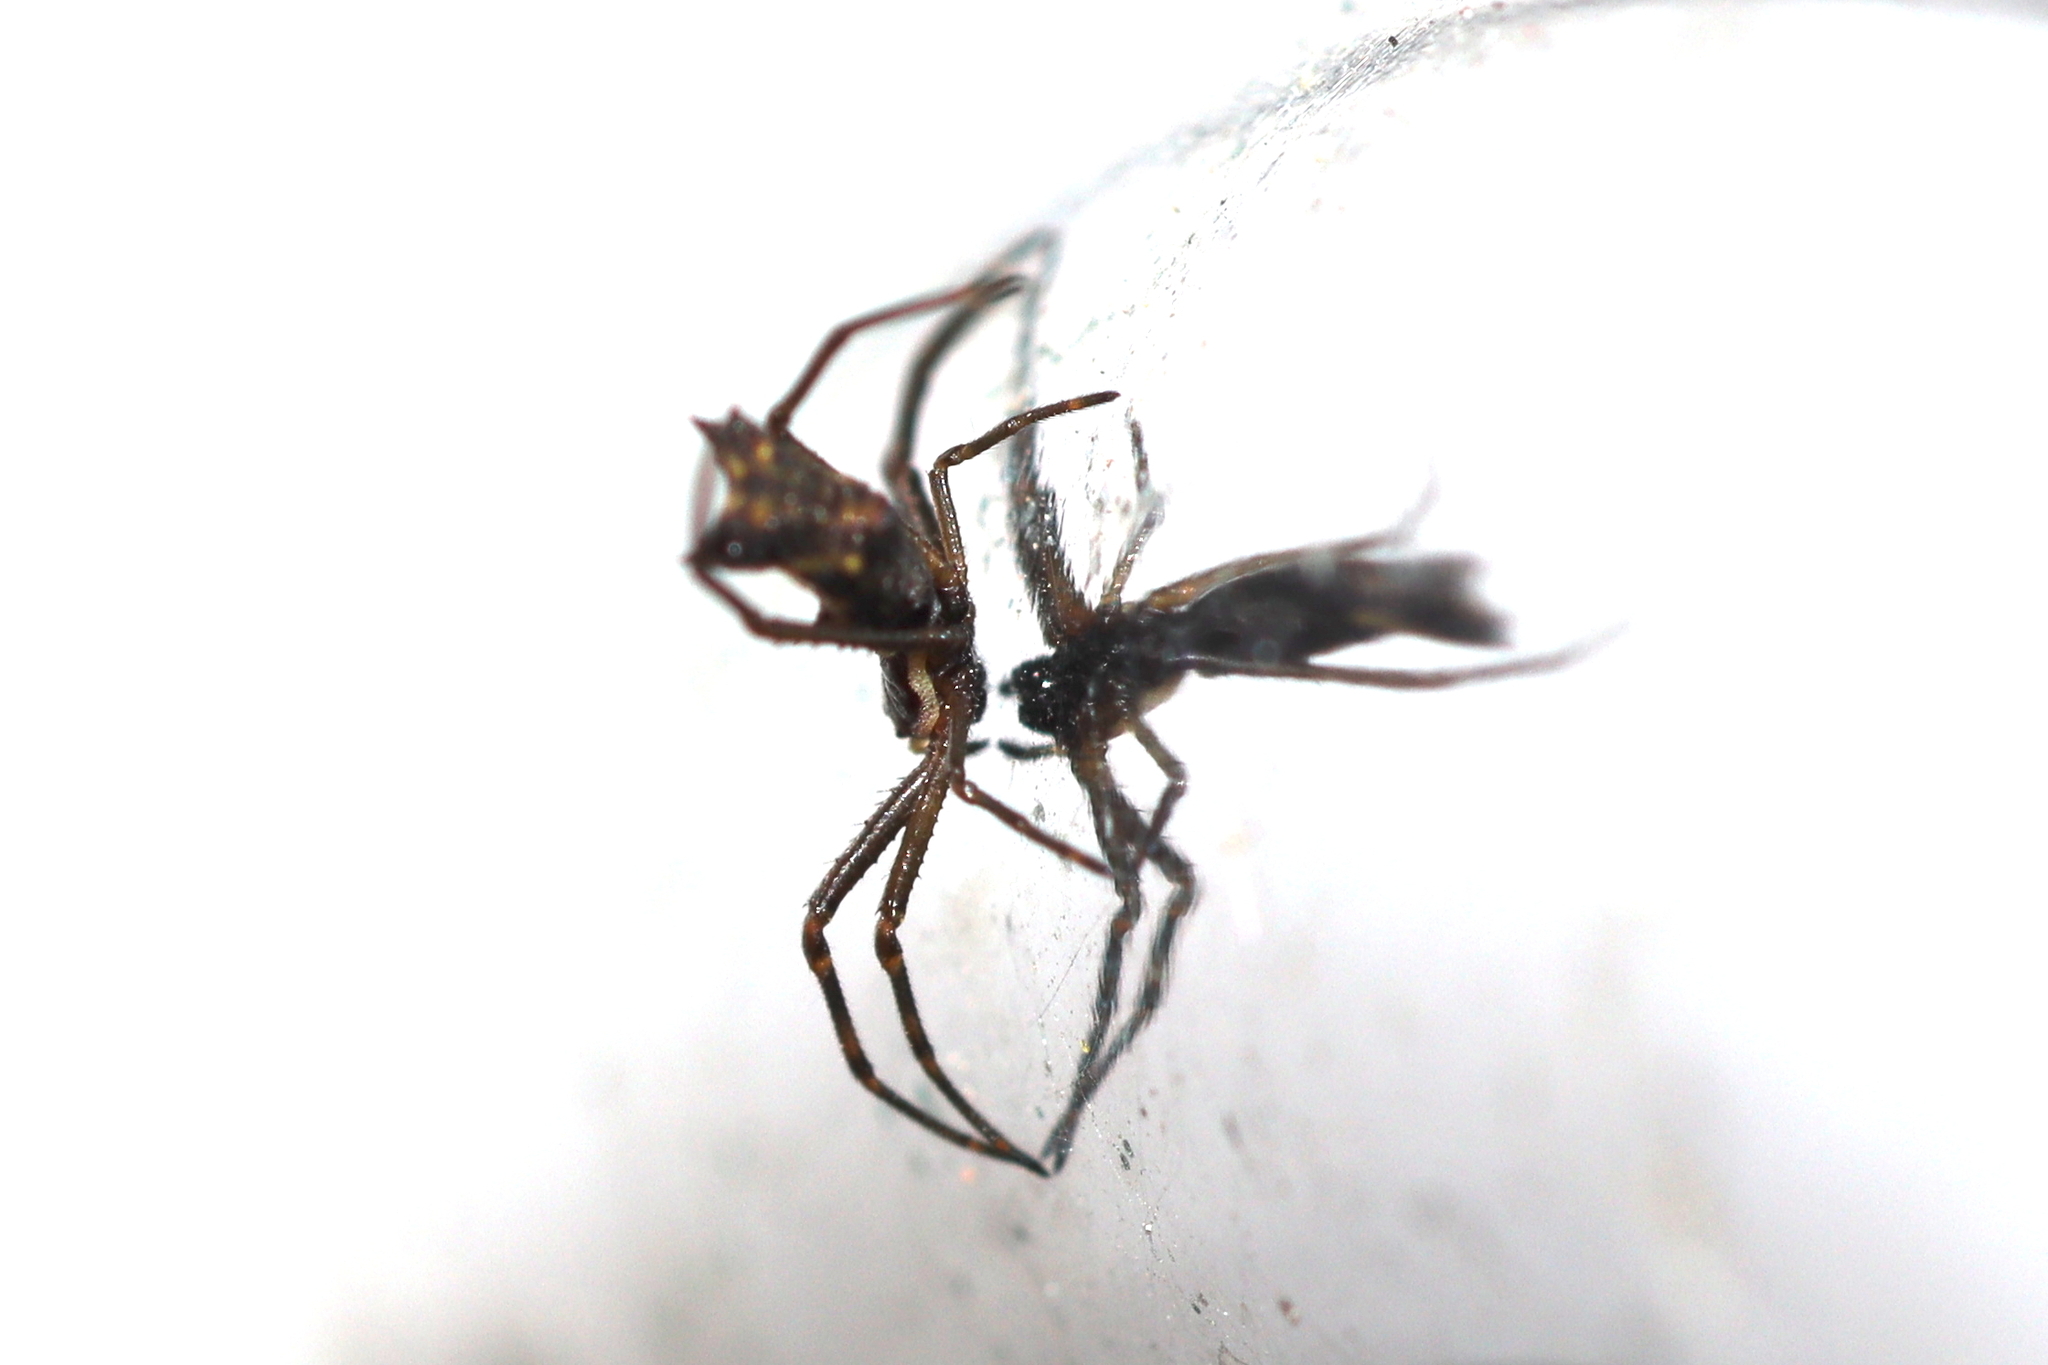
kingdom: Animalia
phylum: Arthropoda
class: Arachnida
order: Araneae
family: Araneidae
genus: Micrathena
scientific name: Micrathena nigrichelis
